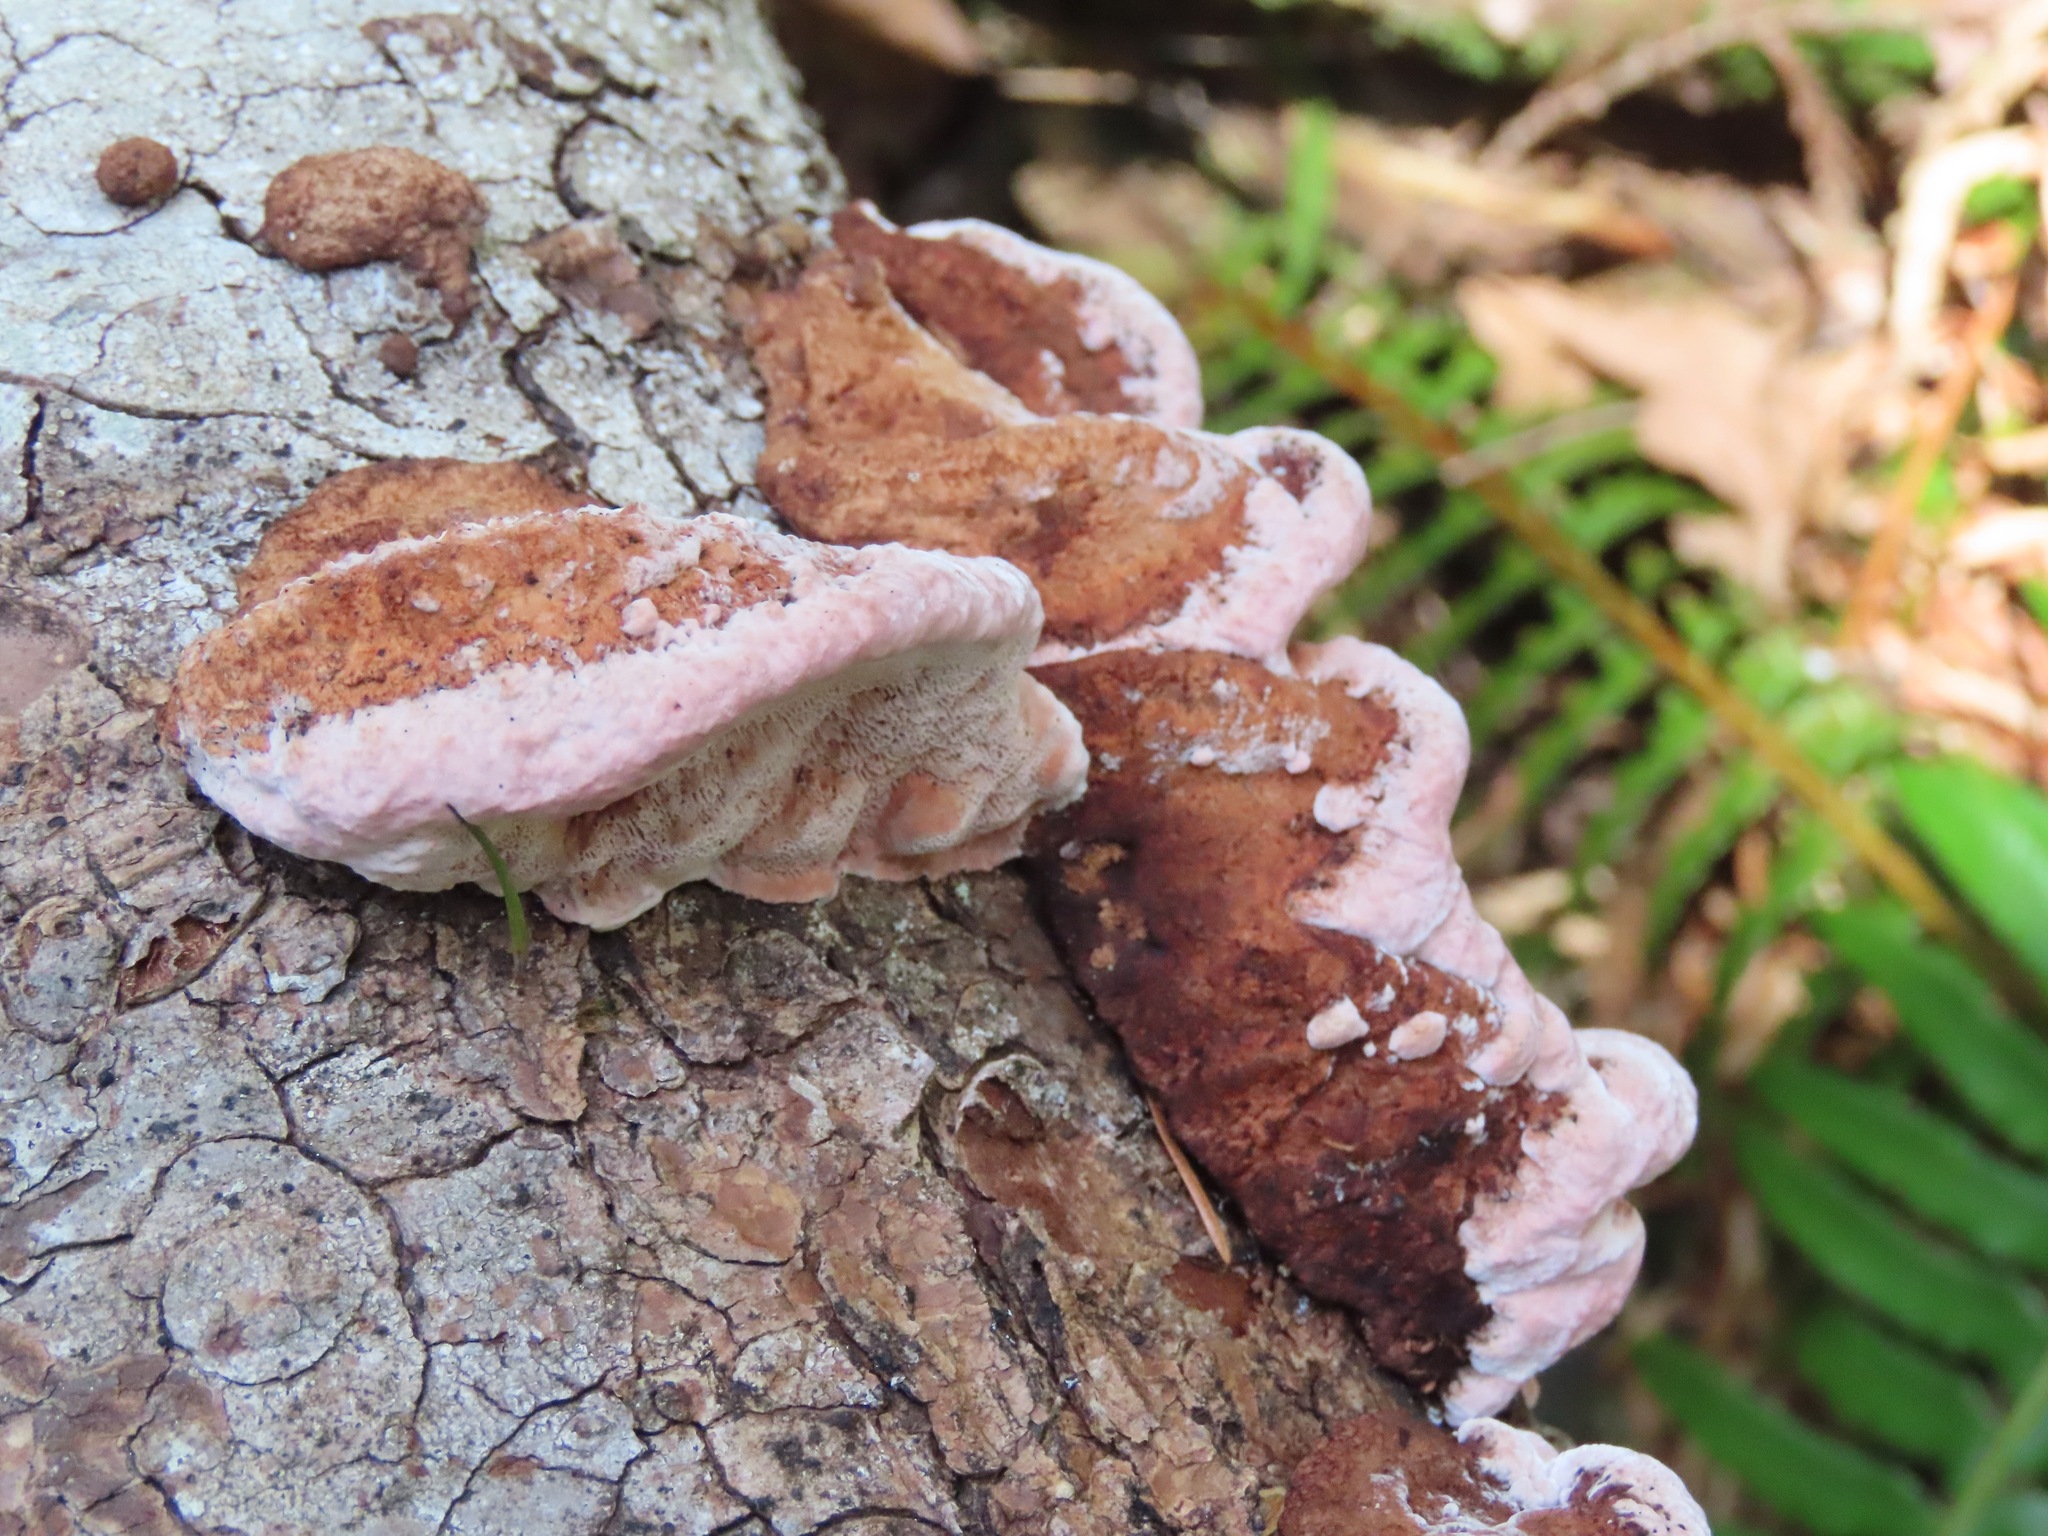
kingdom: Fungi
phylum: Basidiomycota
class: Agaricomycetes
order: Polyporales
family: Fomitopsidaceae
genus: Rhodofomes
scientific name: Rhodofomes cajanderi
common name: Rosy conk
